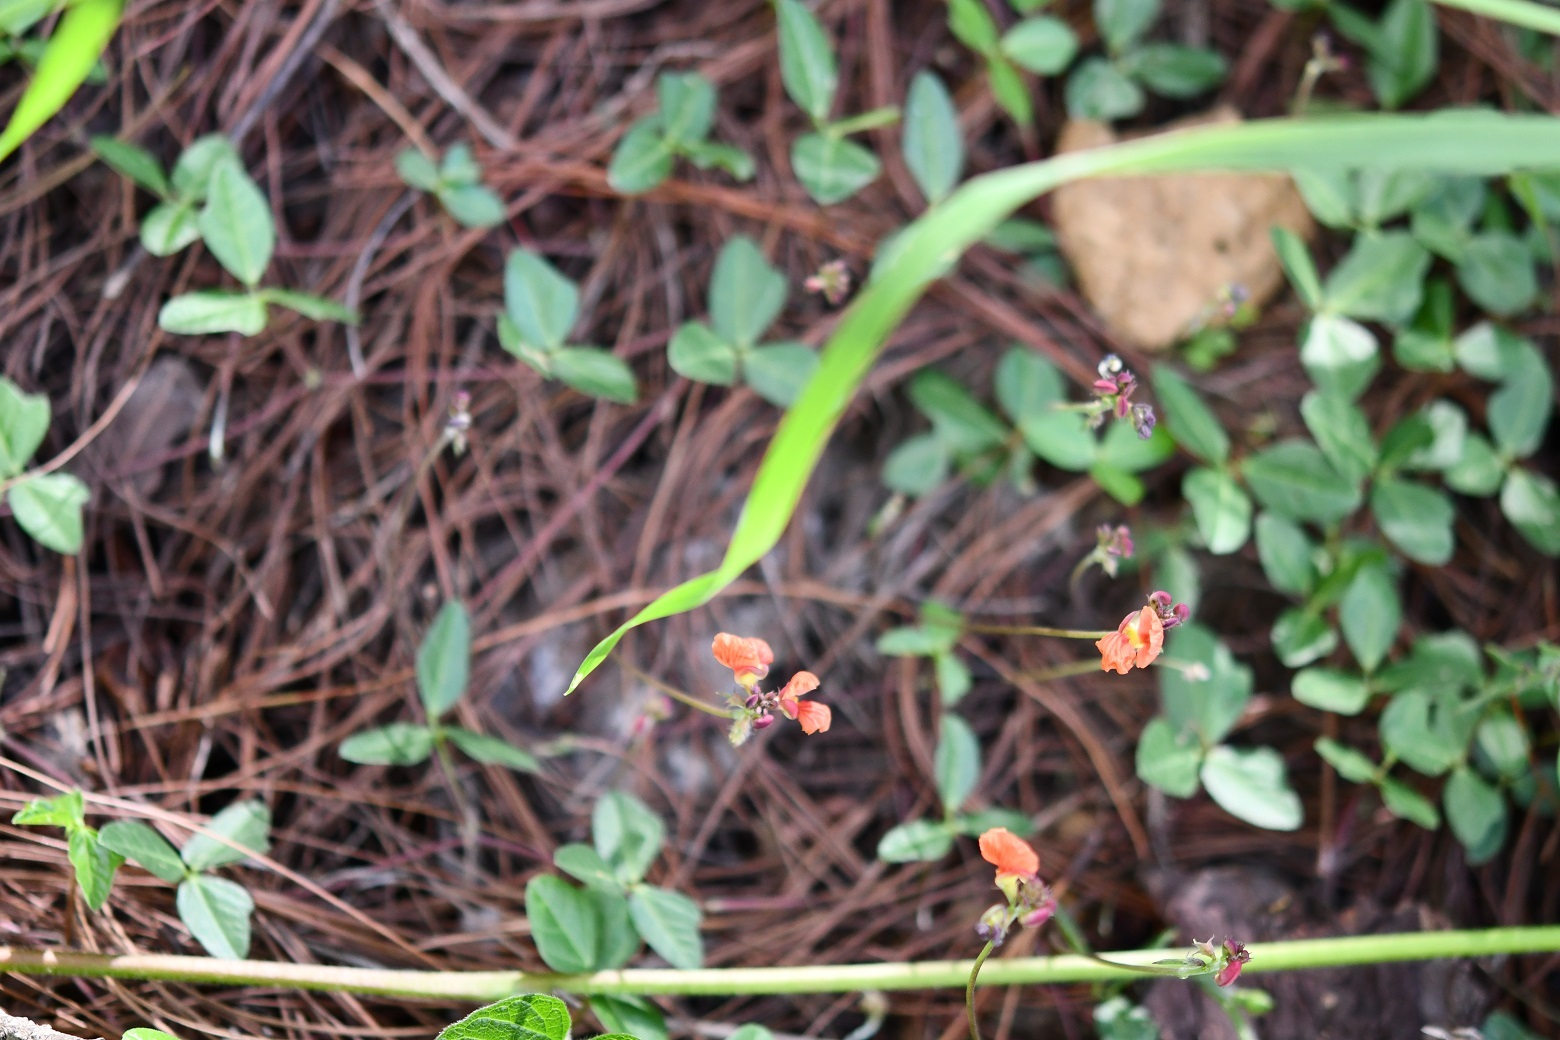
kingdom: Plantae
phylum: Tracheophyta
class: Magnoliopsida
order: Fabales
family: Fabaceae
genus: Macroptilium
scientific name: Macroptilium gibbosifolium
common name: Variableleaf bushbean
